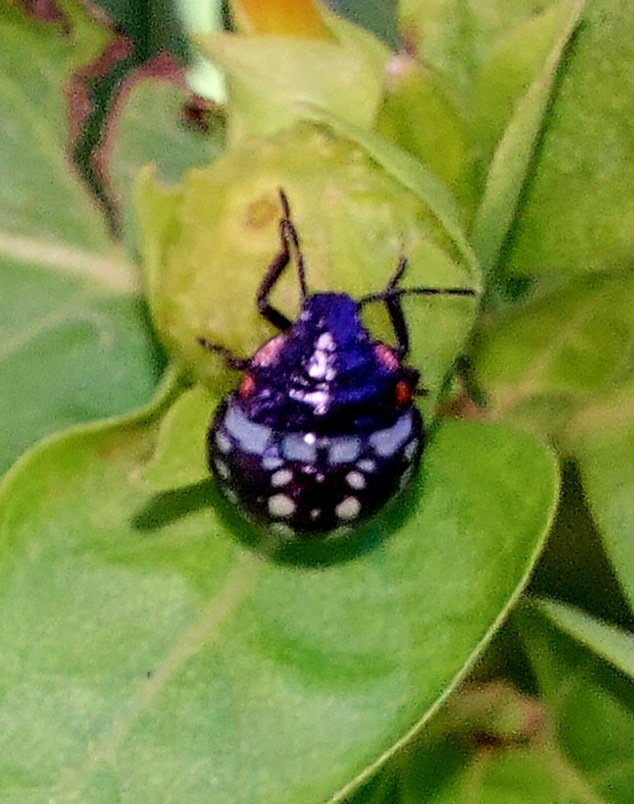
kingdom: Animalia
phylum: Arthropoda
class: Insecta
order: Hemiptera
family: Pentatomidae
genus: Nezara
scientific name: Nezara viridula
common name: Southern green stink bug
